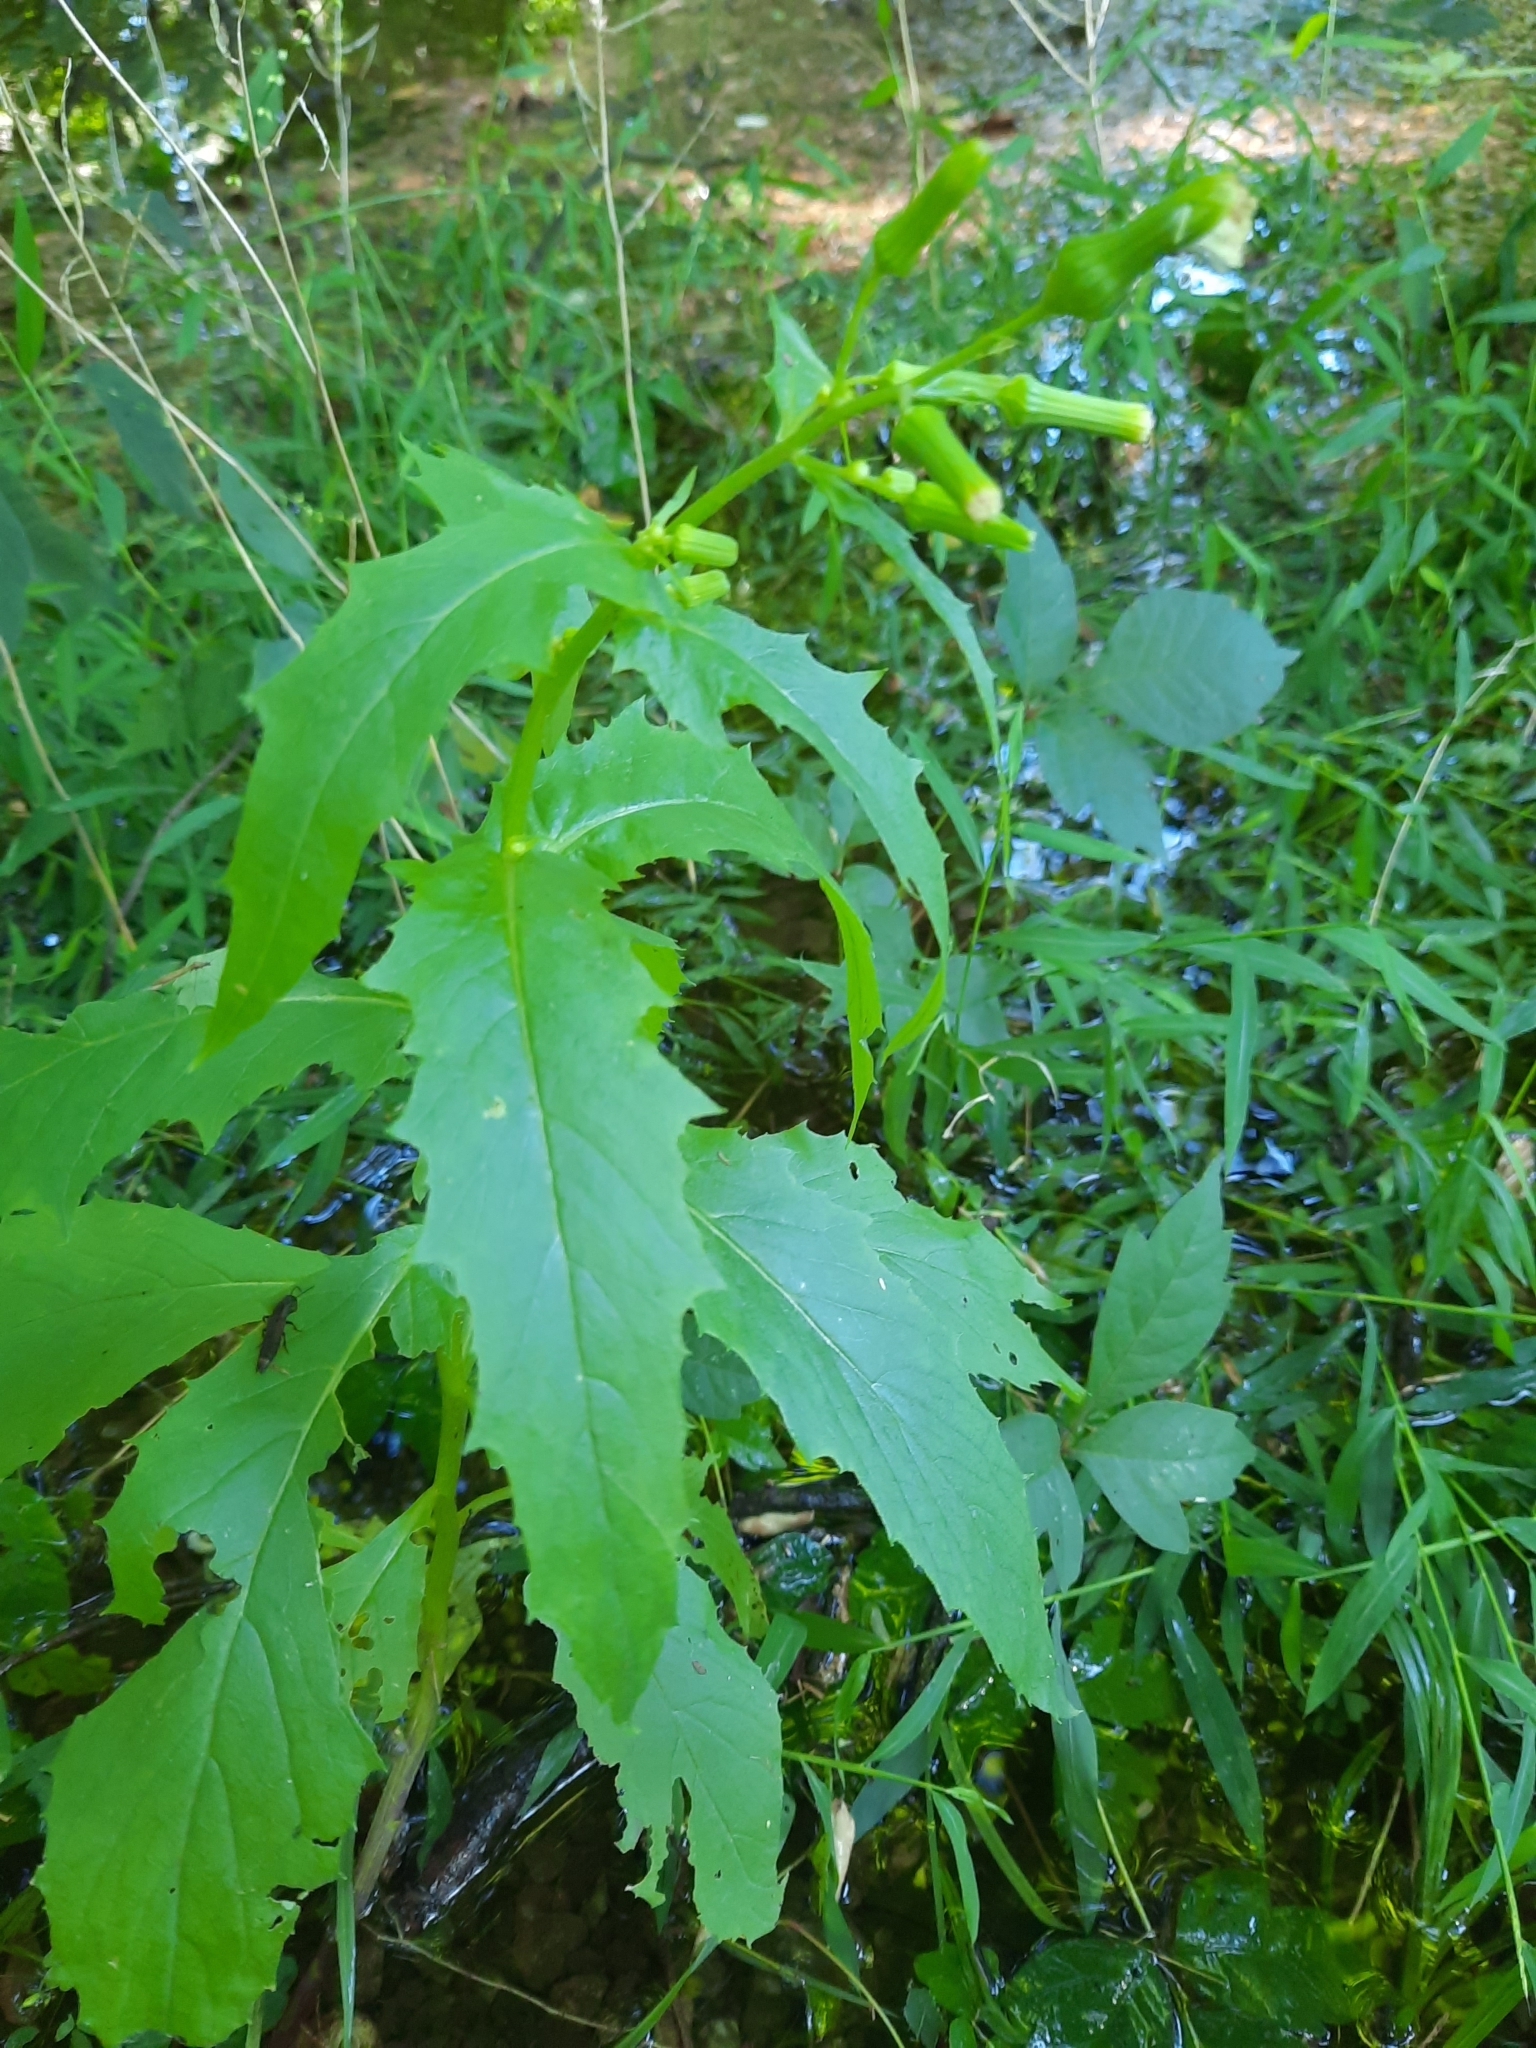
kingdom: Plantae
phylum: Tracheophyta
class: Magnoliopsida
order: Asterales
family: Asteraceae
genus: Erechtites
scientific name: Erechtites hieraciifolius
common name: American burnweed
